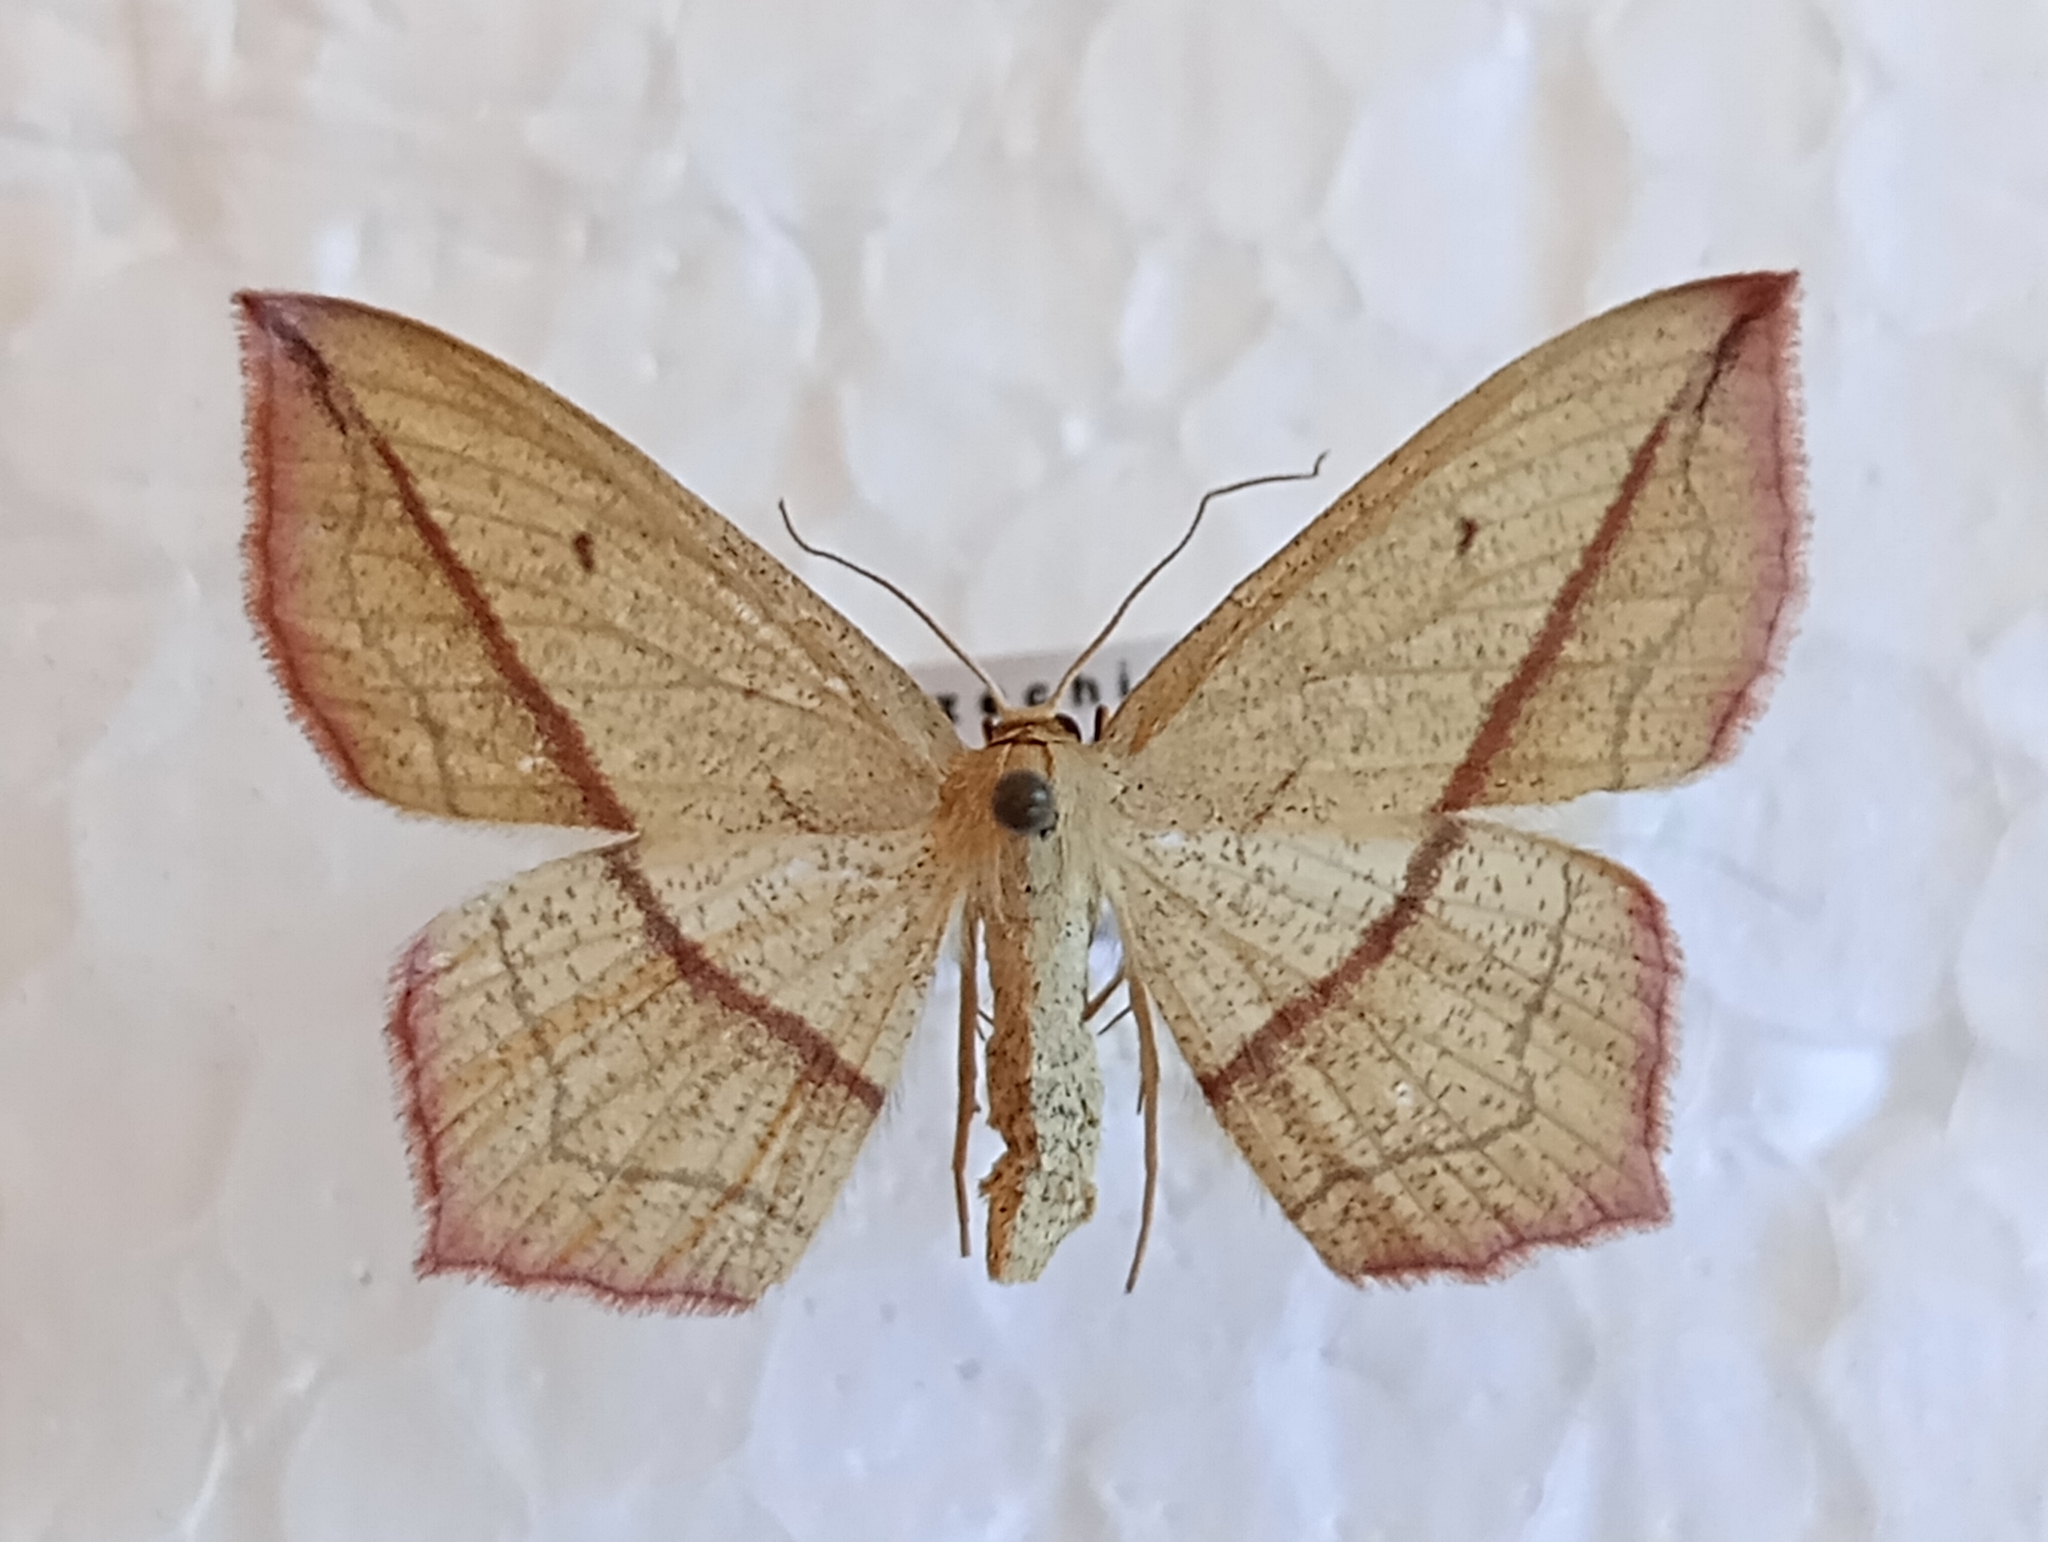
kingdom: Animalia
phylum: Arthropoda
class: Insecta
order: Lepidoptera
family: Geometridae
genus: Timandra
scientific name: Timandra comae
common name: Blood-vein
